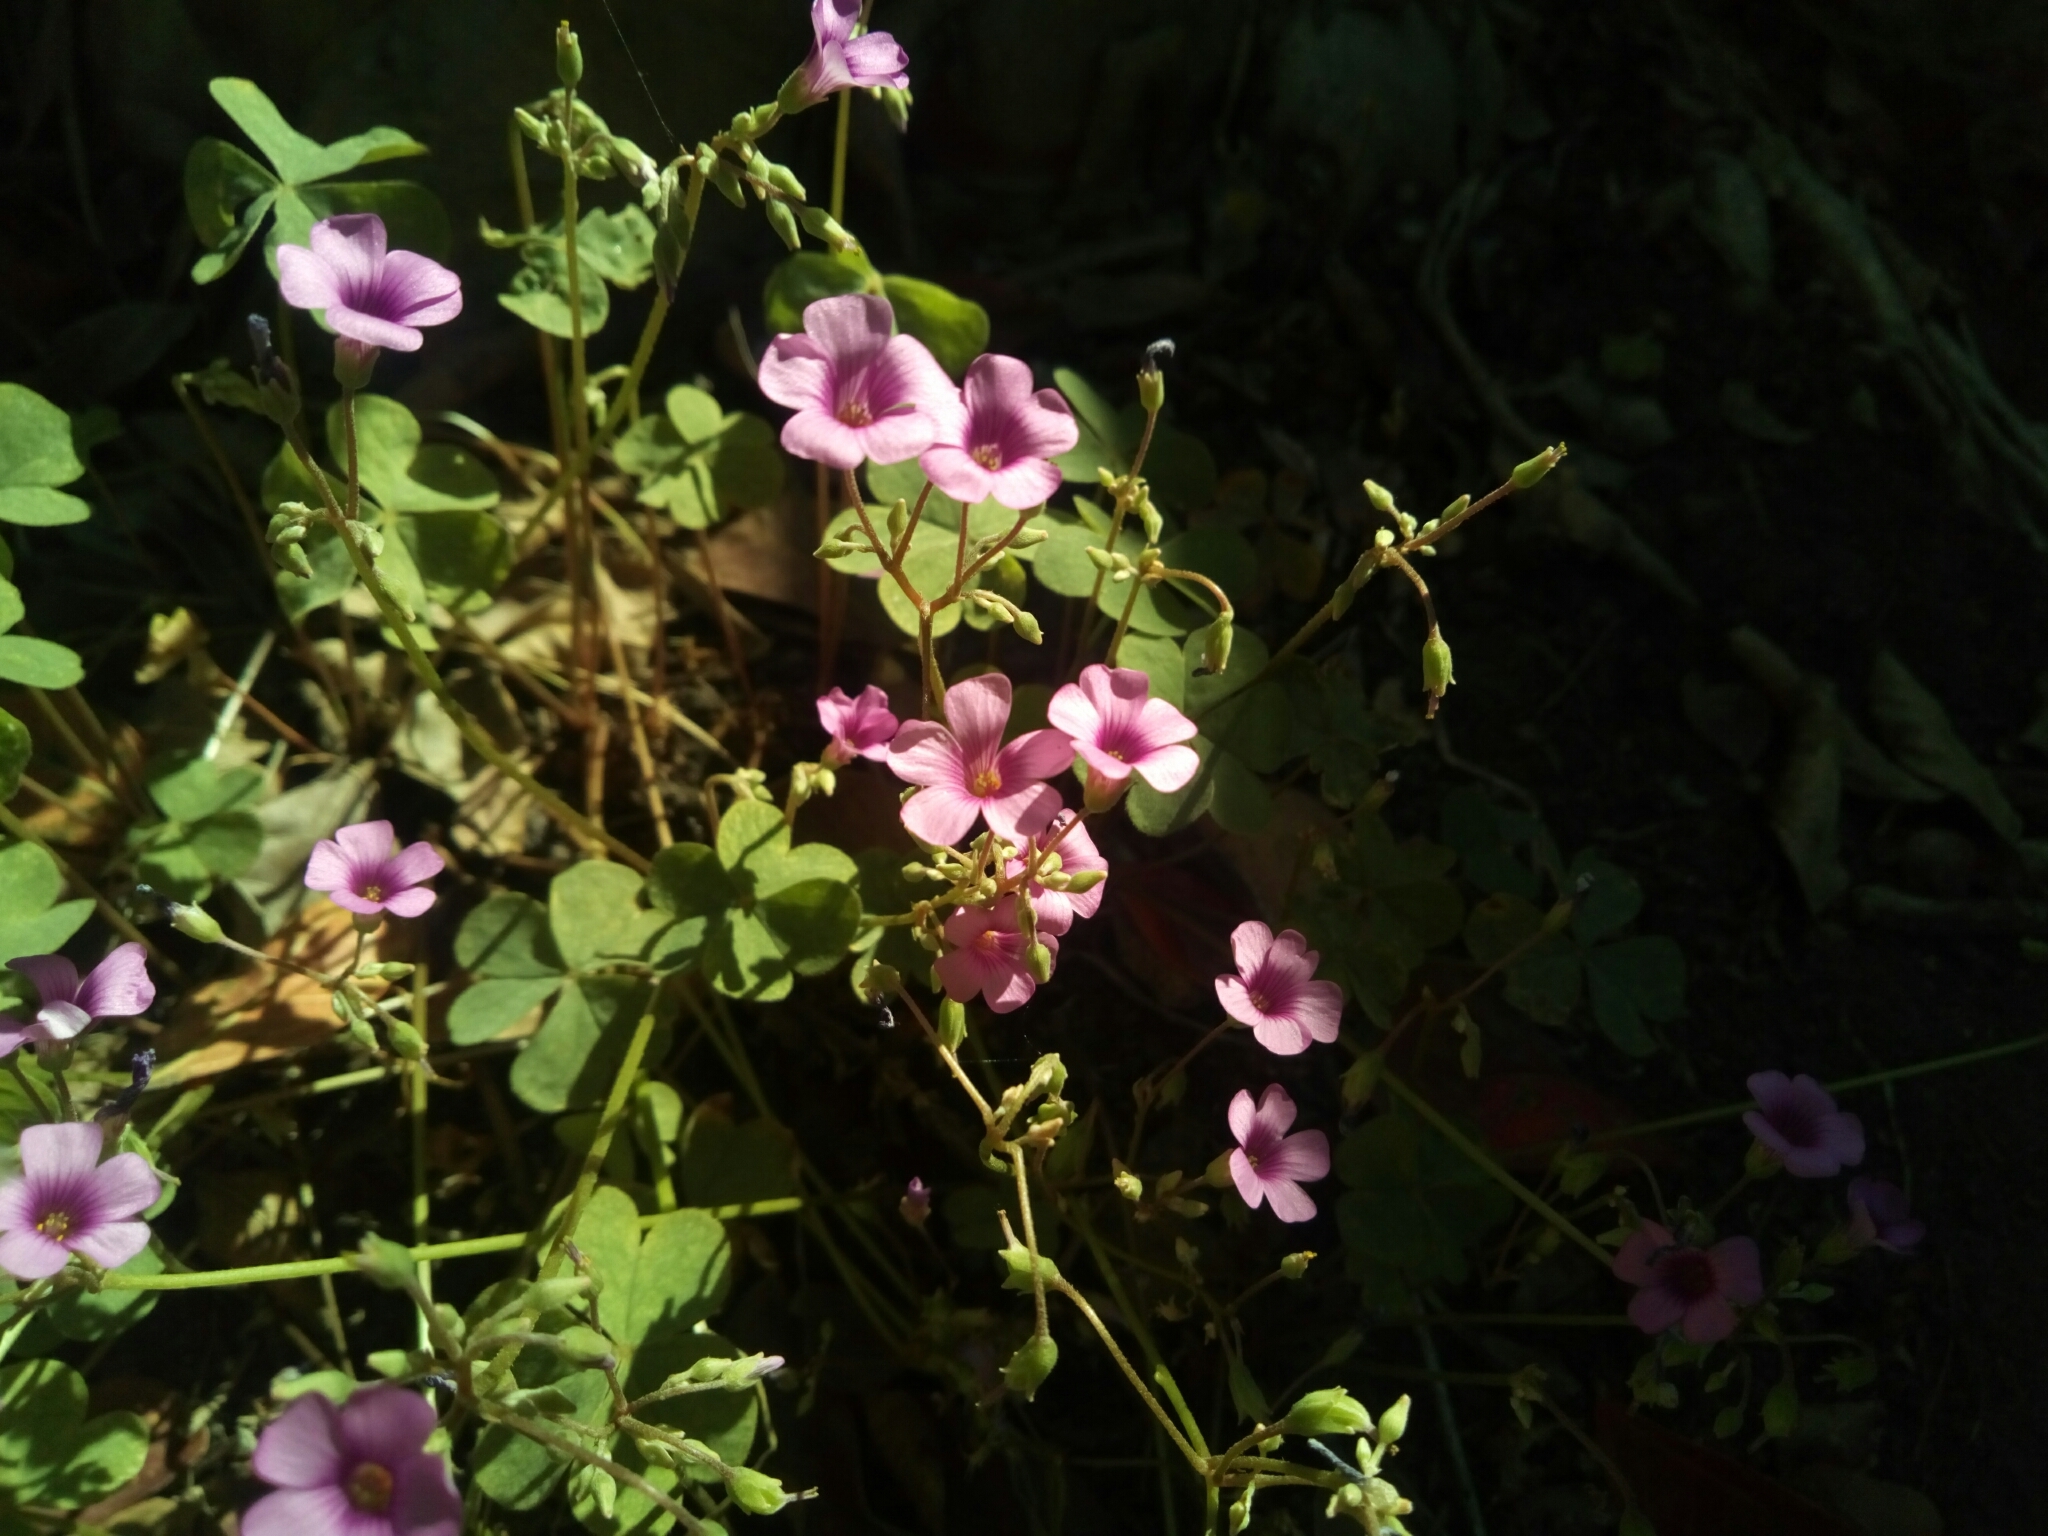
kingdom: Plantae
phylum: Tracheophyta
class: Magnoliopsida
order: Oxalidales
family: Oxalidaceae
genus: Oxalis
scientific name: Oxalis articulata
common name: Pink-sorrel
